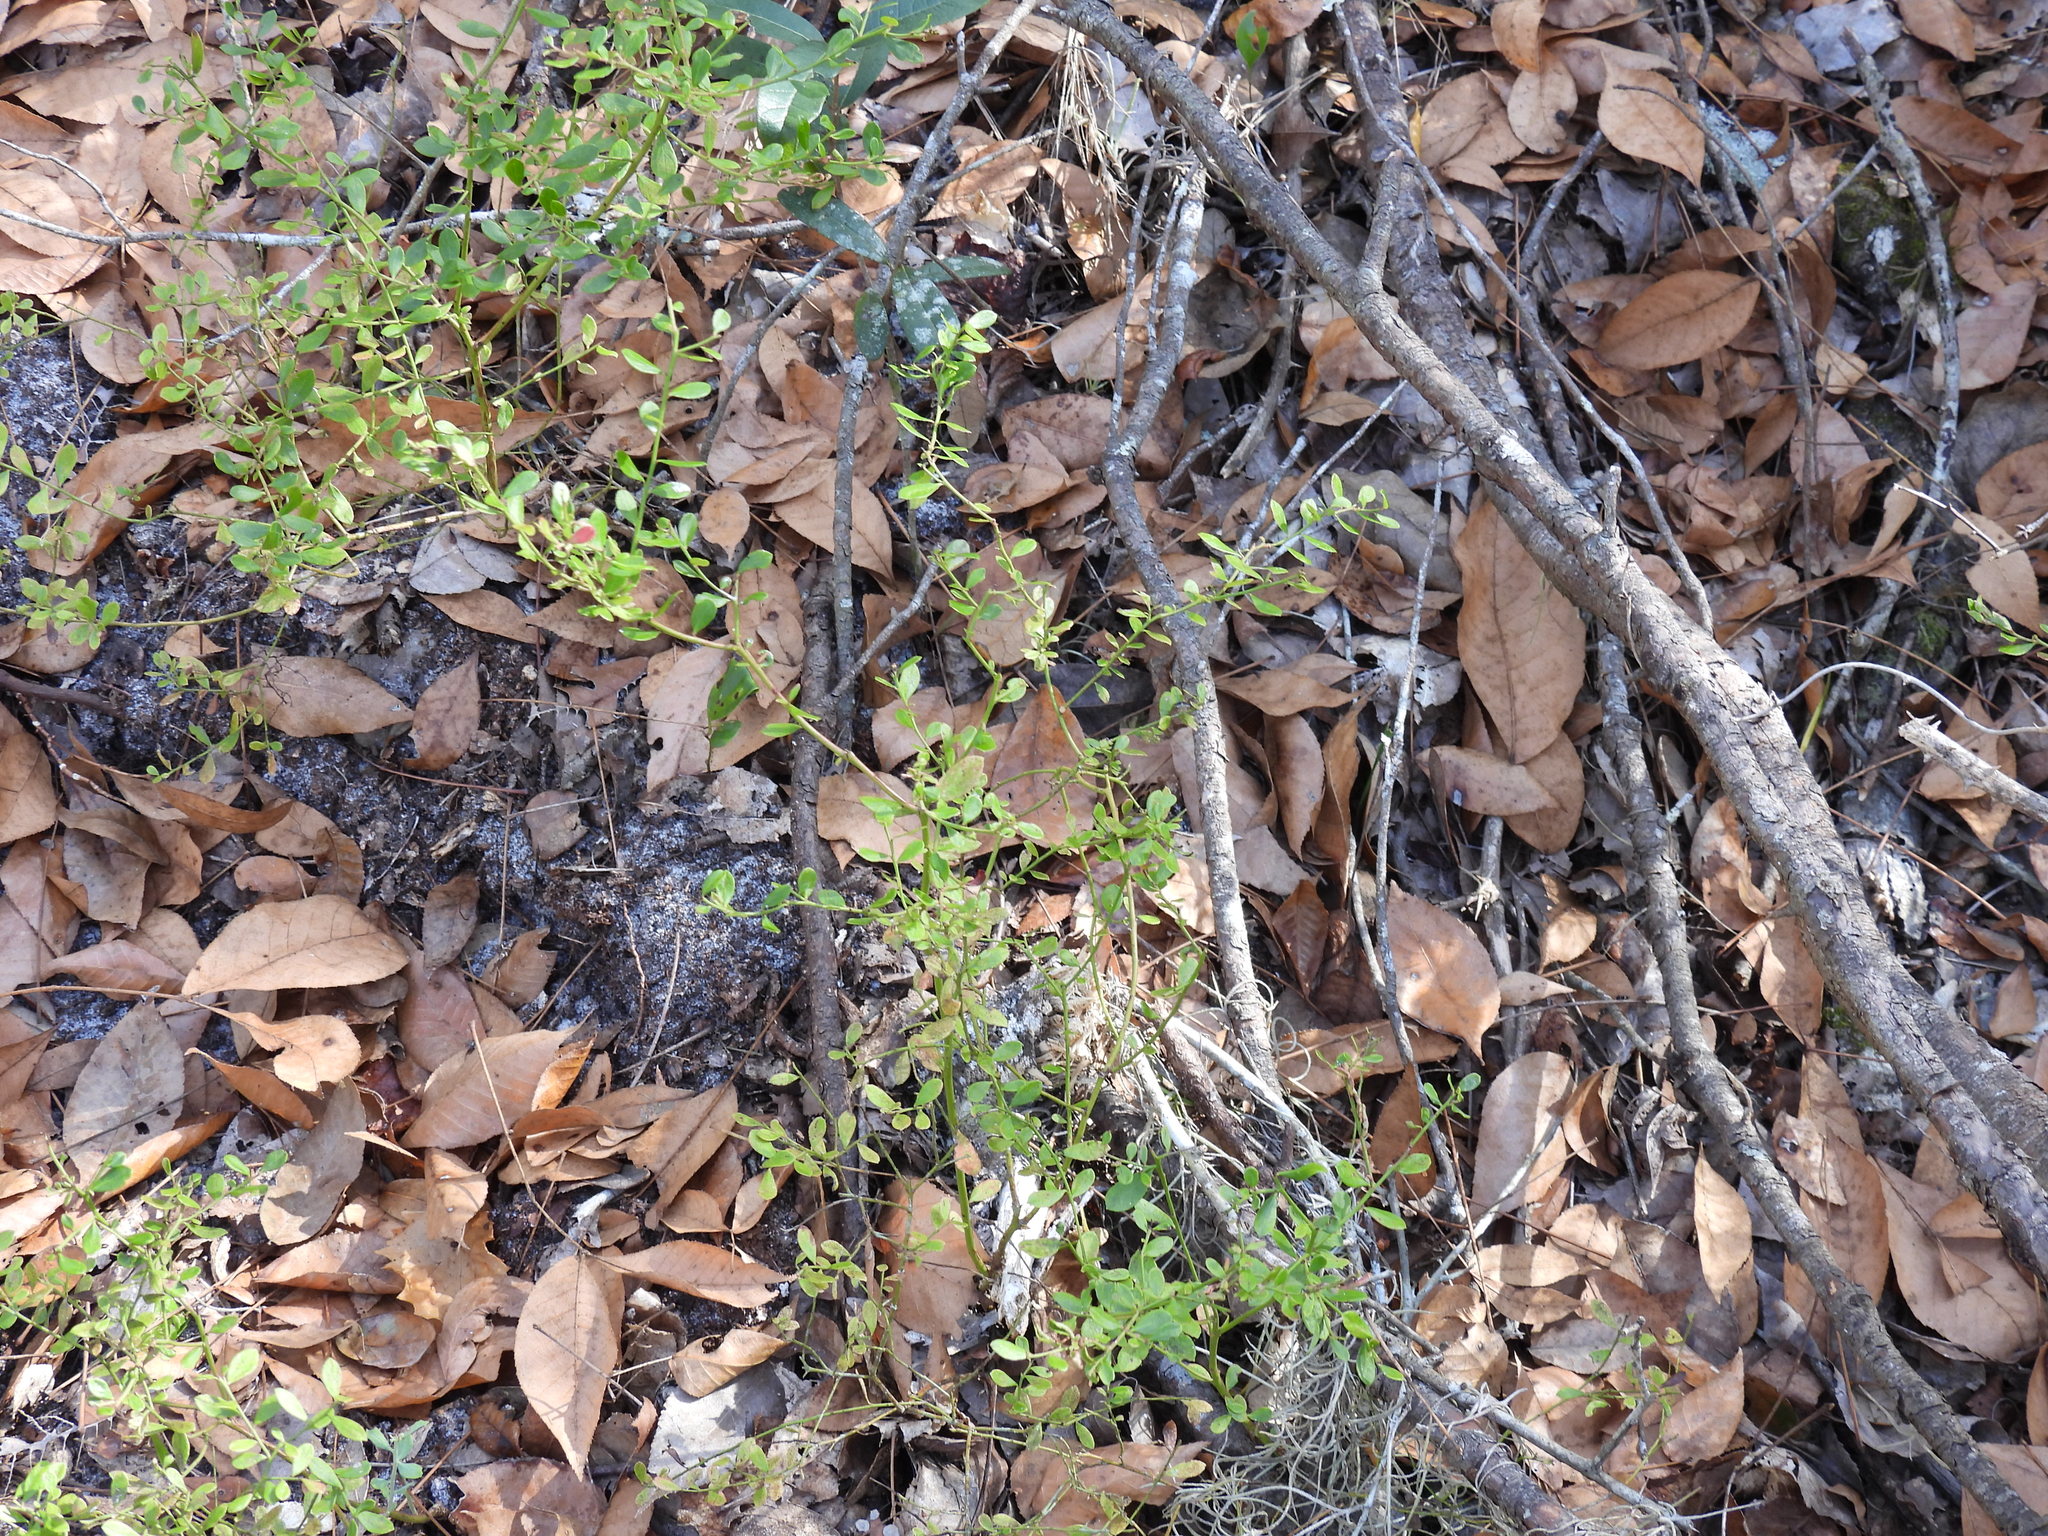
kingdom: Plantae
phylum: Tracheophyta
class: Magnoliopsida
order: Ericales
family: Ericaceae
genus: Vaccinium
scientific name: Vaccinium myrsinites
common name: Evergreen blueberry
